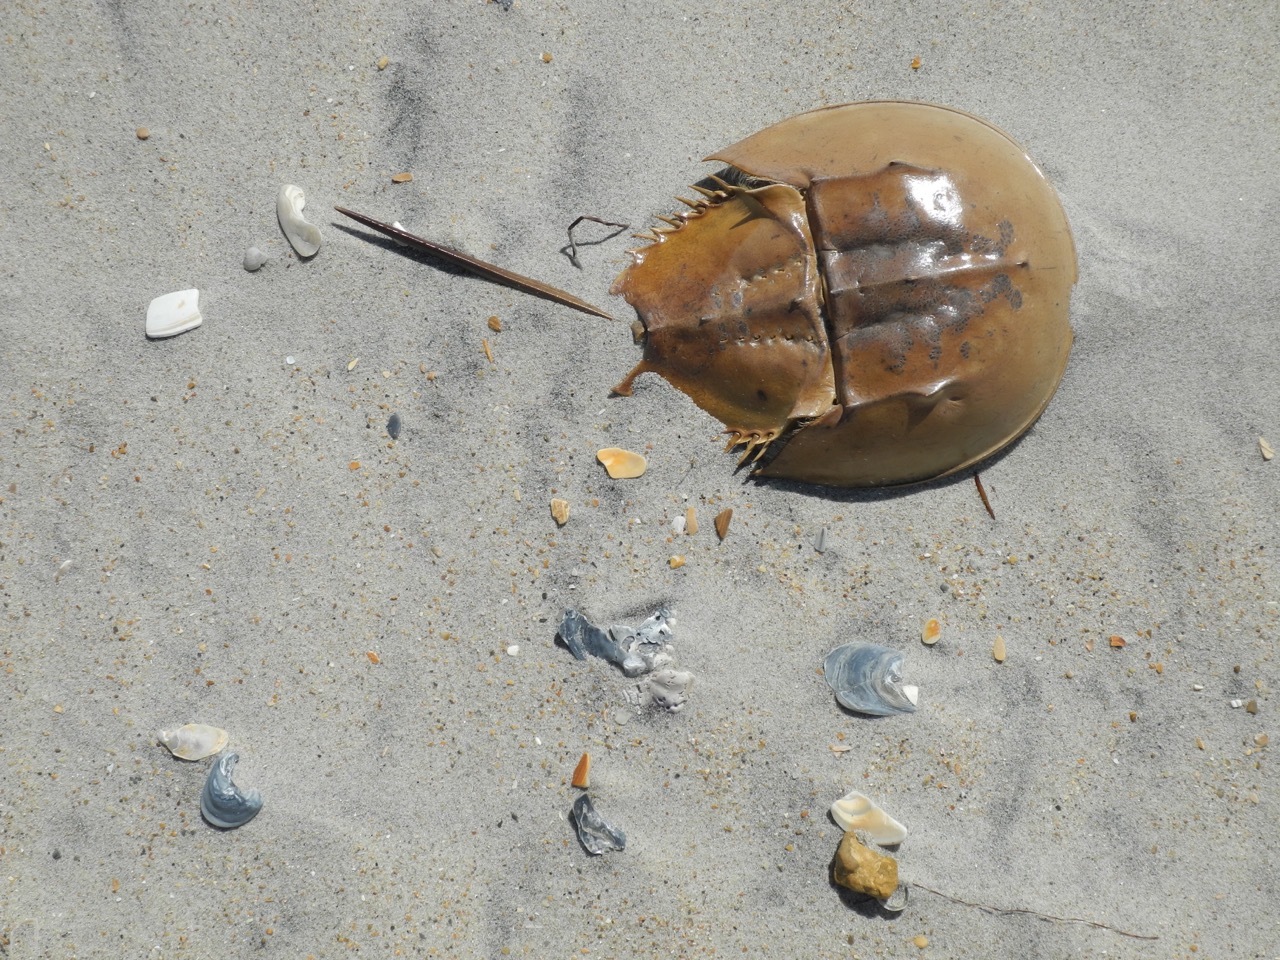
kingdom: Animalia
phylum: Arthropoda
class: Merostomata
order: Xiphosurida
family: Limulidae
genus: Limulus
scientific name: Limulus polyphemus
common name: Horseshoe crab
